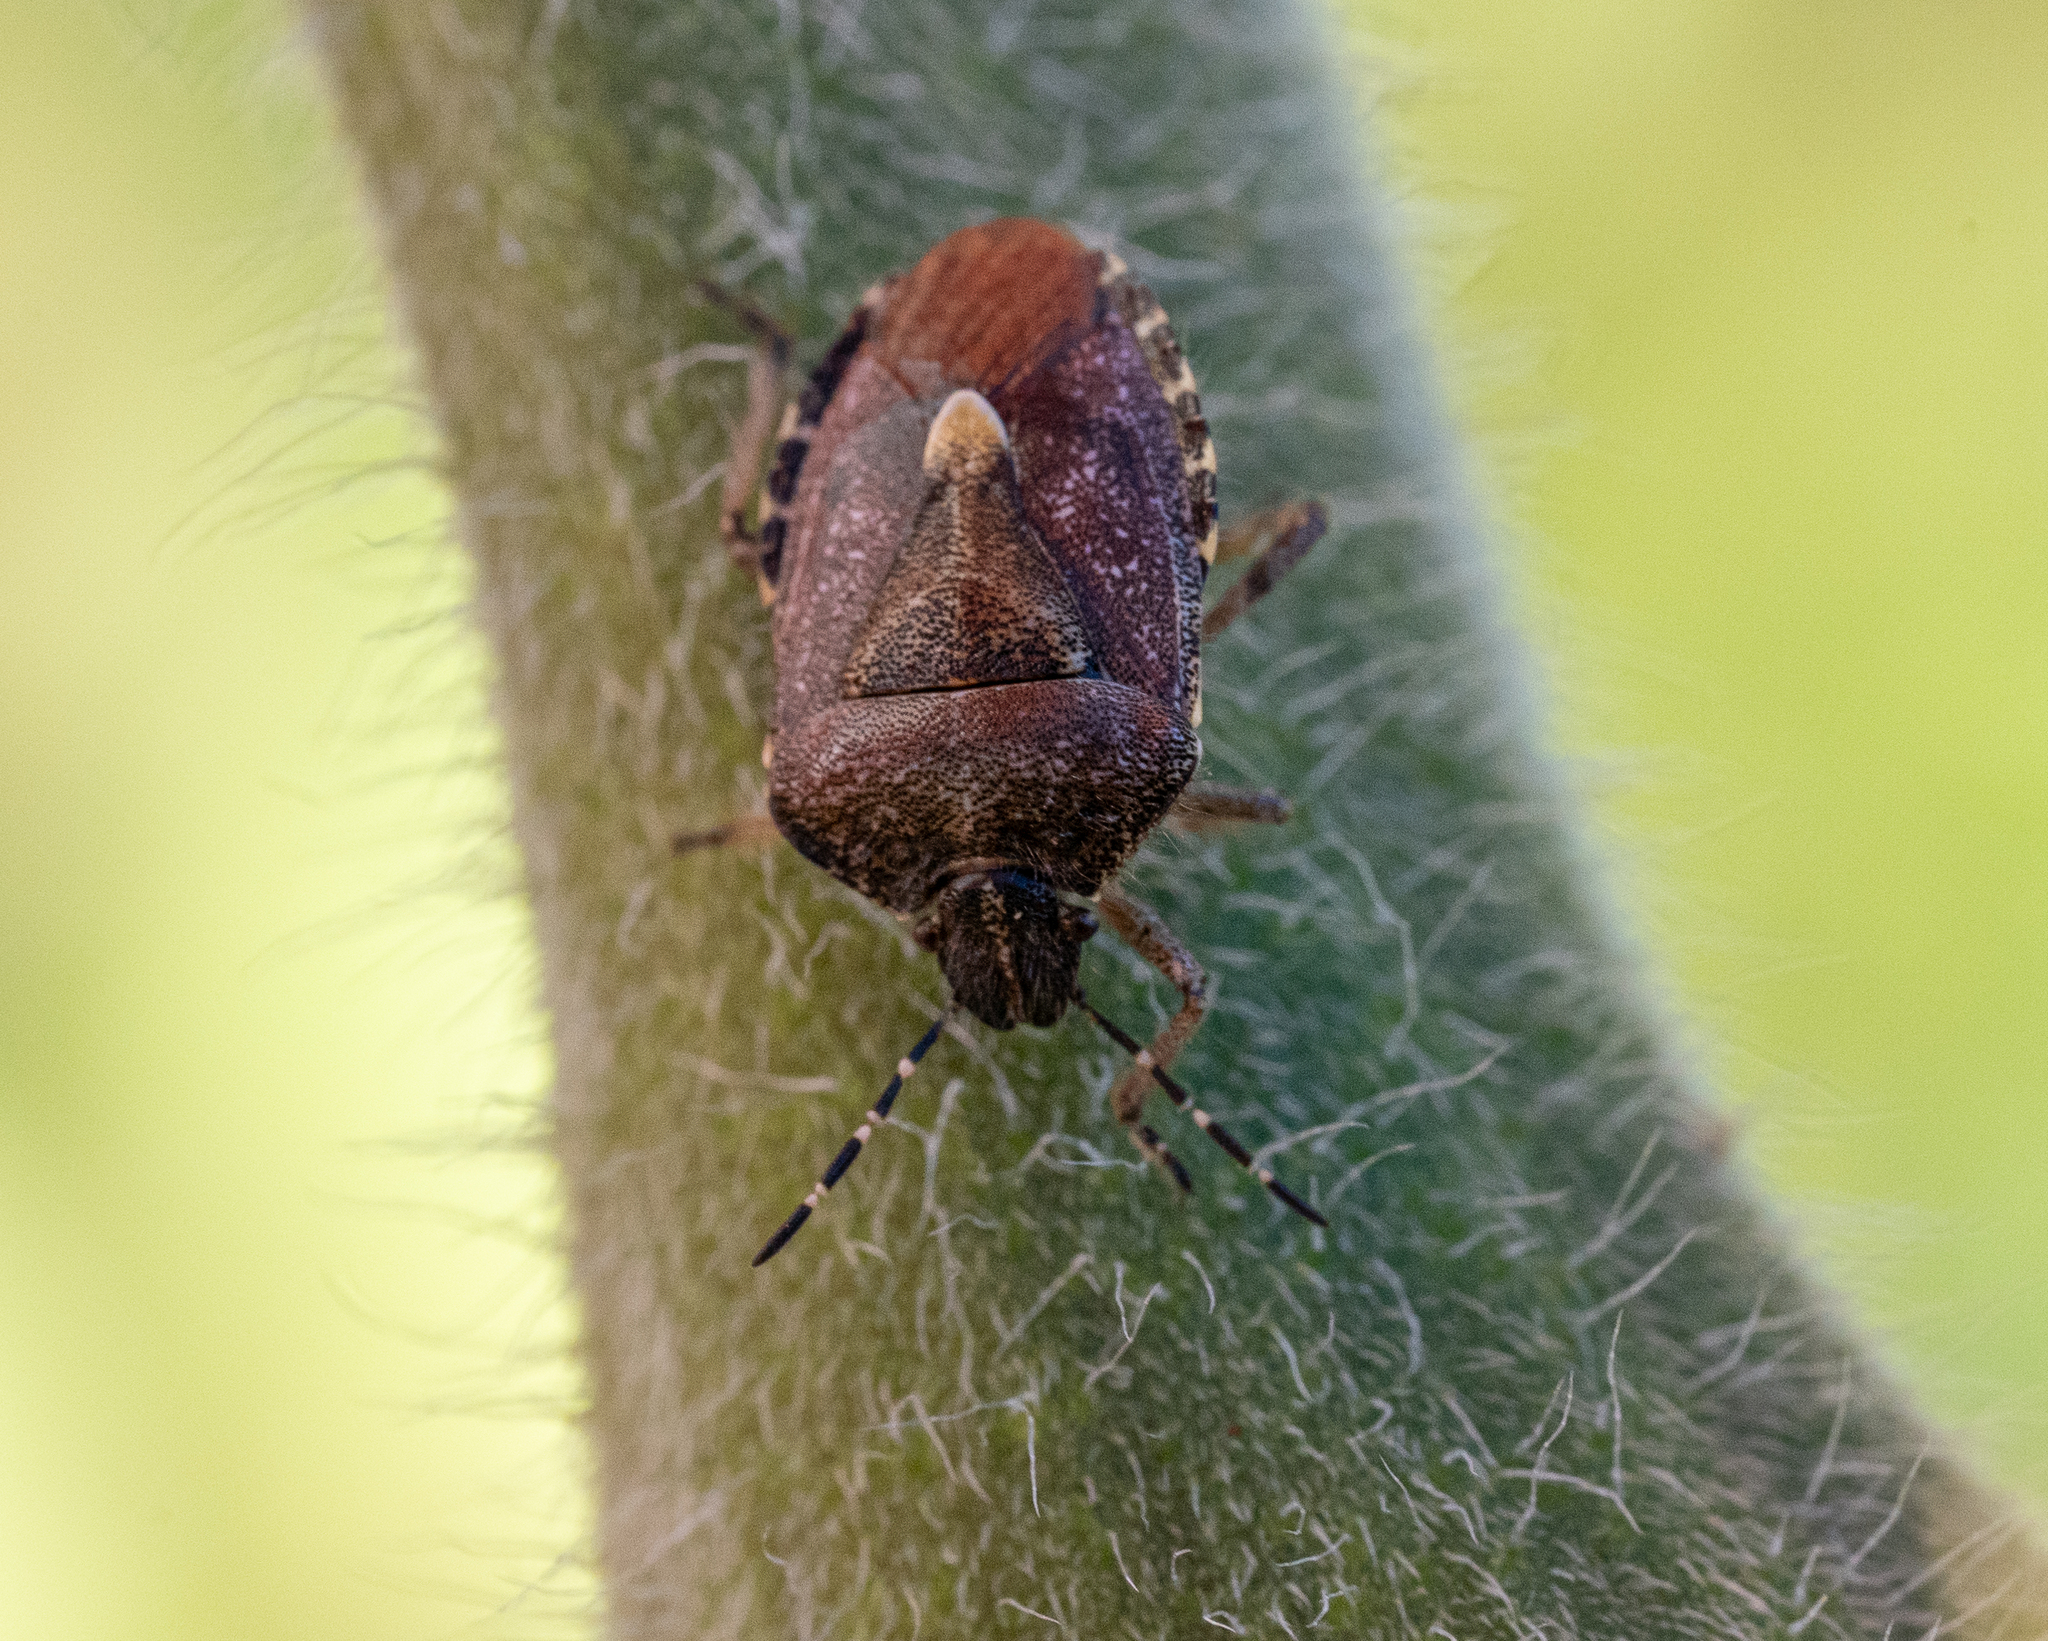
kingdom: Animalia
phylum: Arthropoda
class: Insecta
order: Hemiptera
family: Pentatomidae
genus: Dolycoris
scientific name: Dolycoris baccarum
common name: Sloe bug
